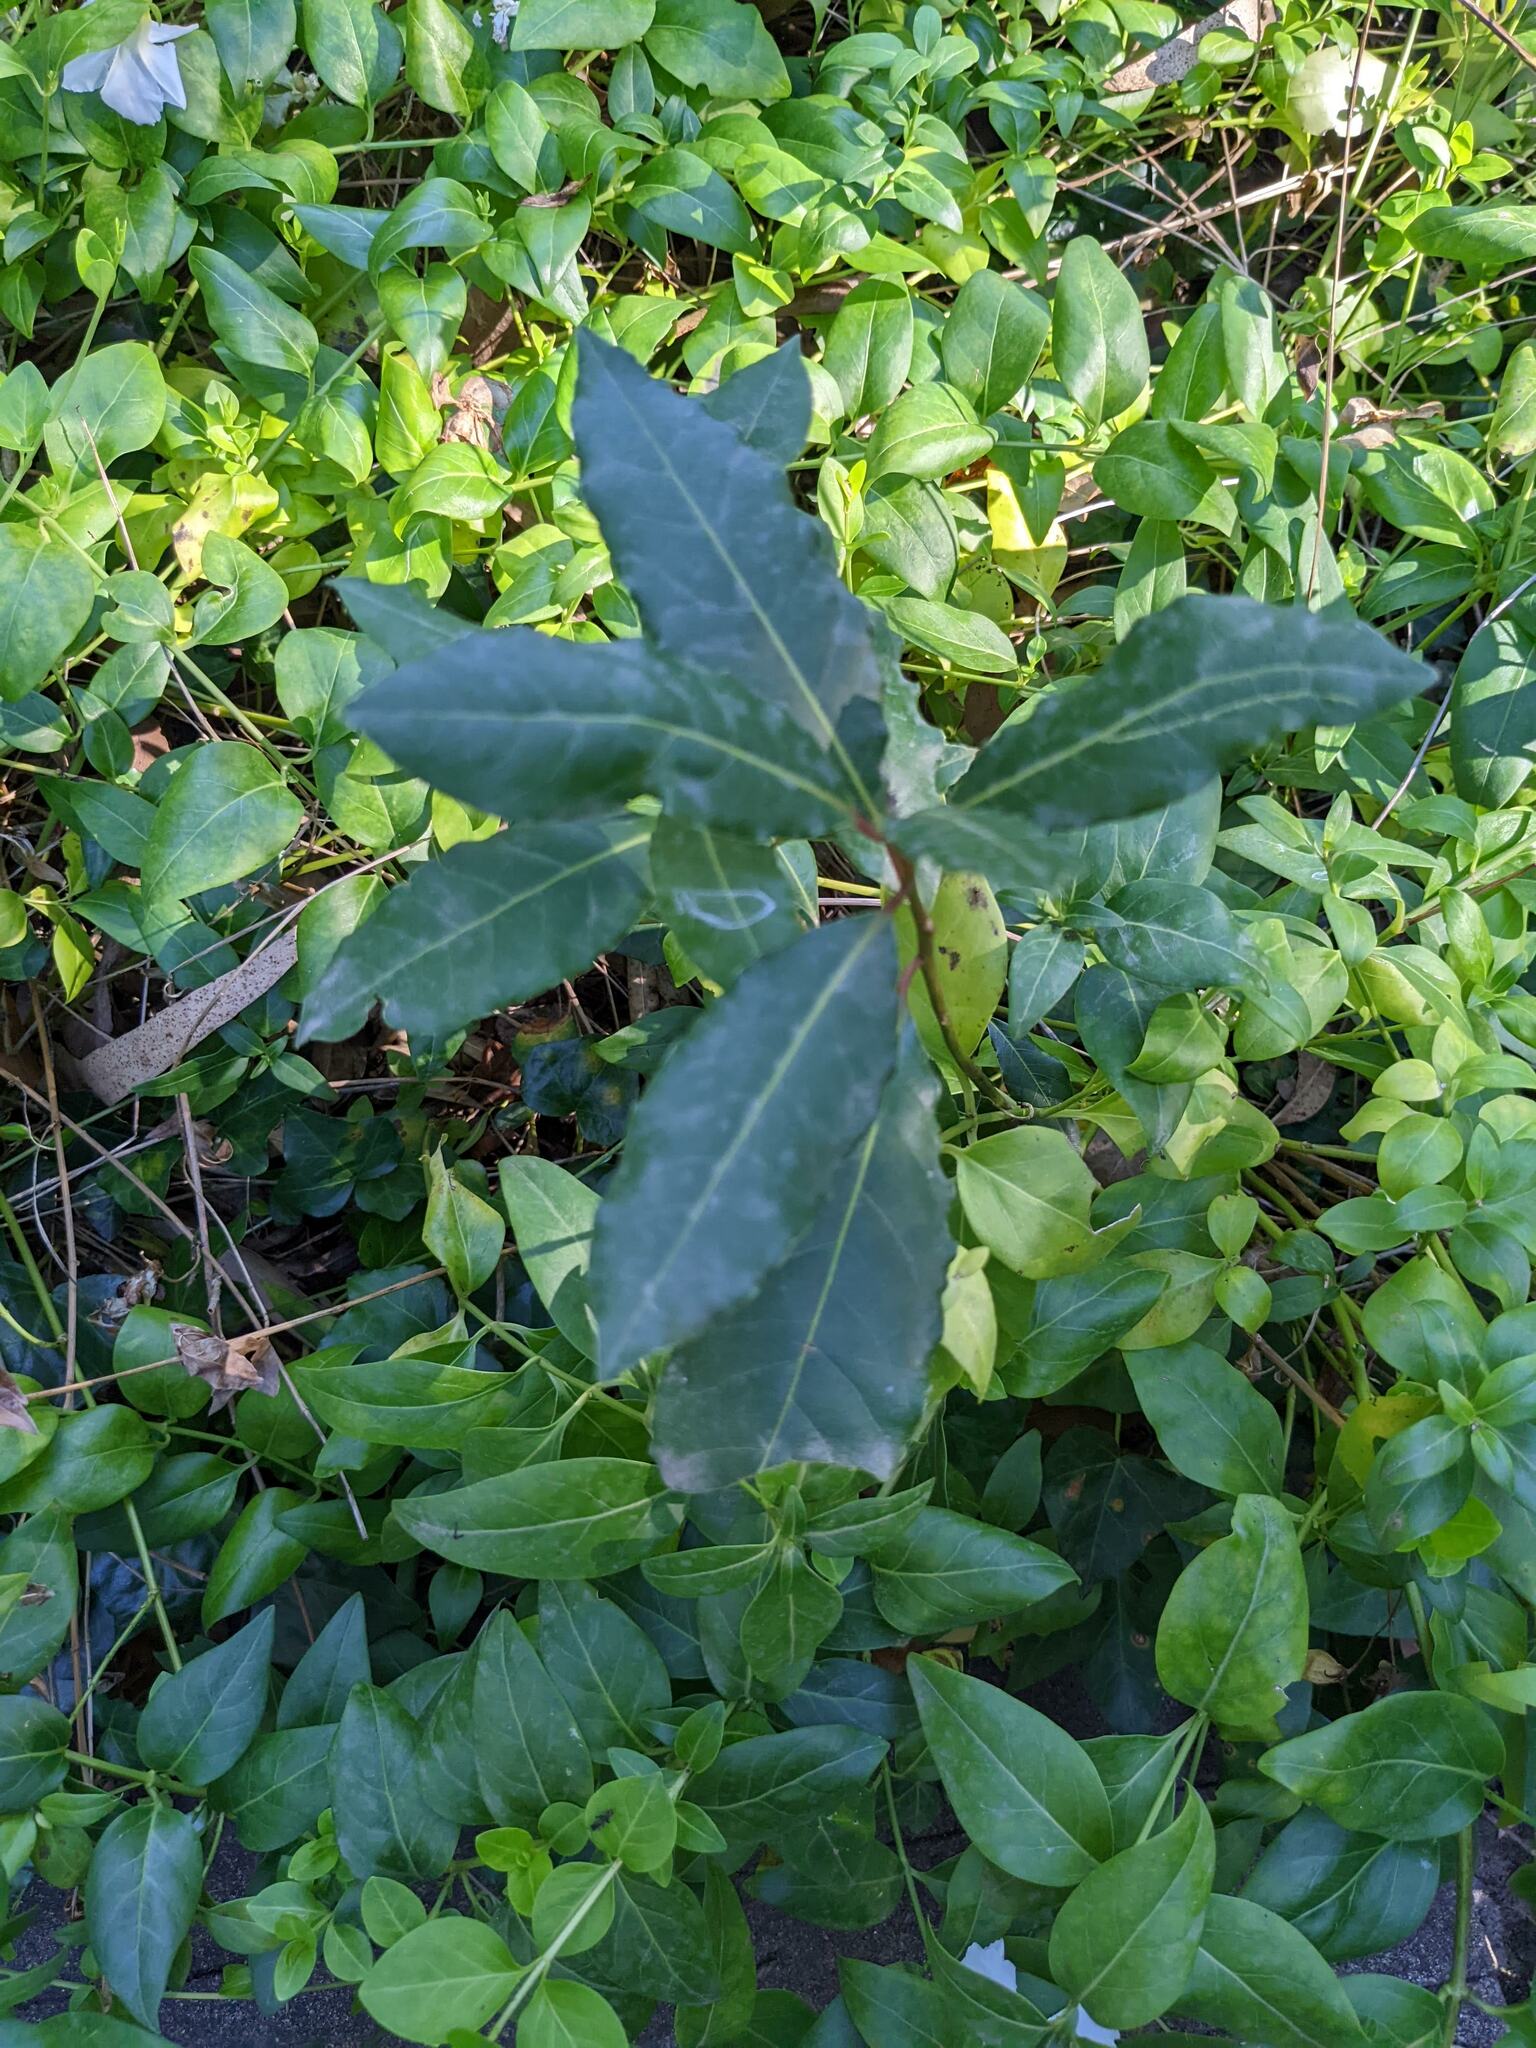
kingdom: Plantae
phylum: Tracheophyta
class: Magnoliopsida
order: Laurales
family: Lauraceae
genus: Laurus
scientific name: Laurus nobilis
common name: Bay
